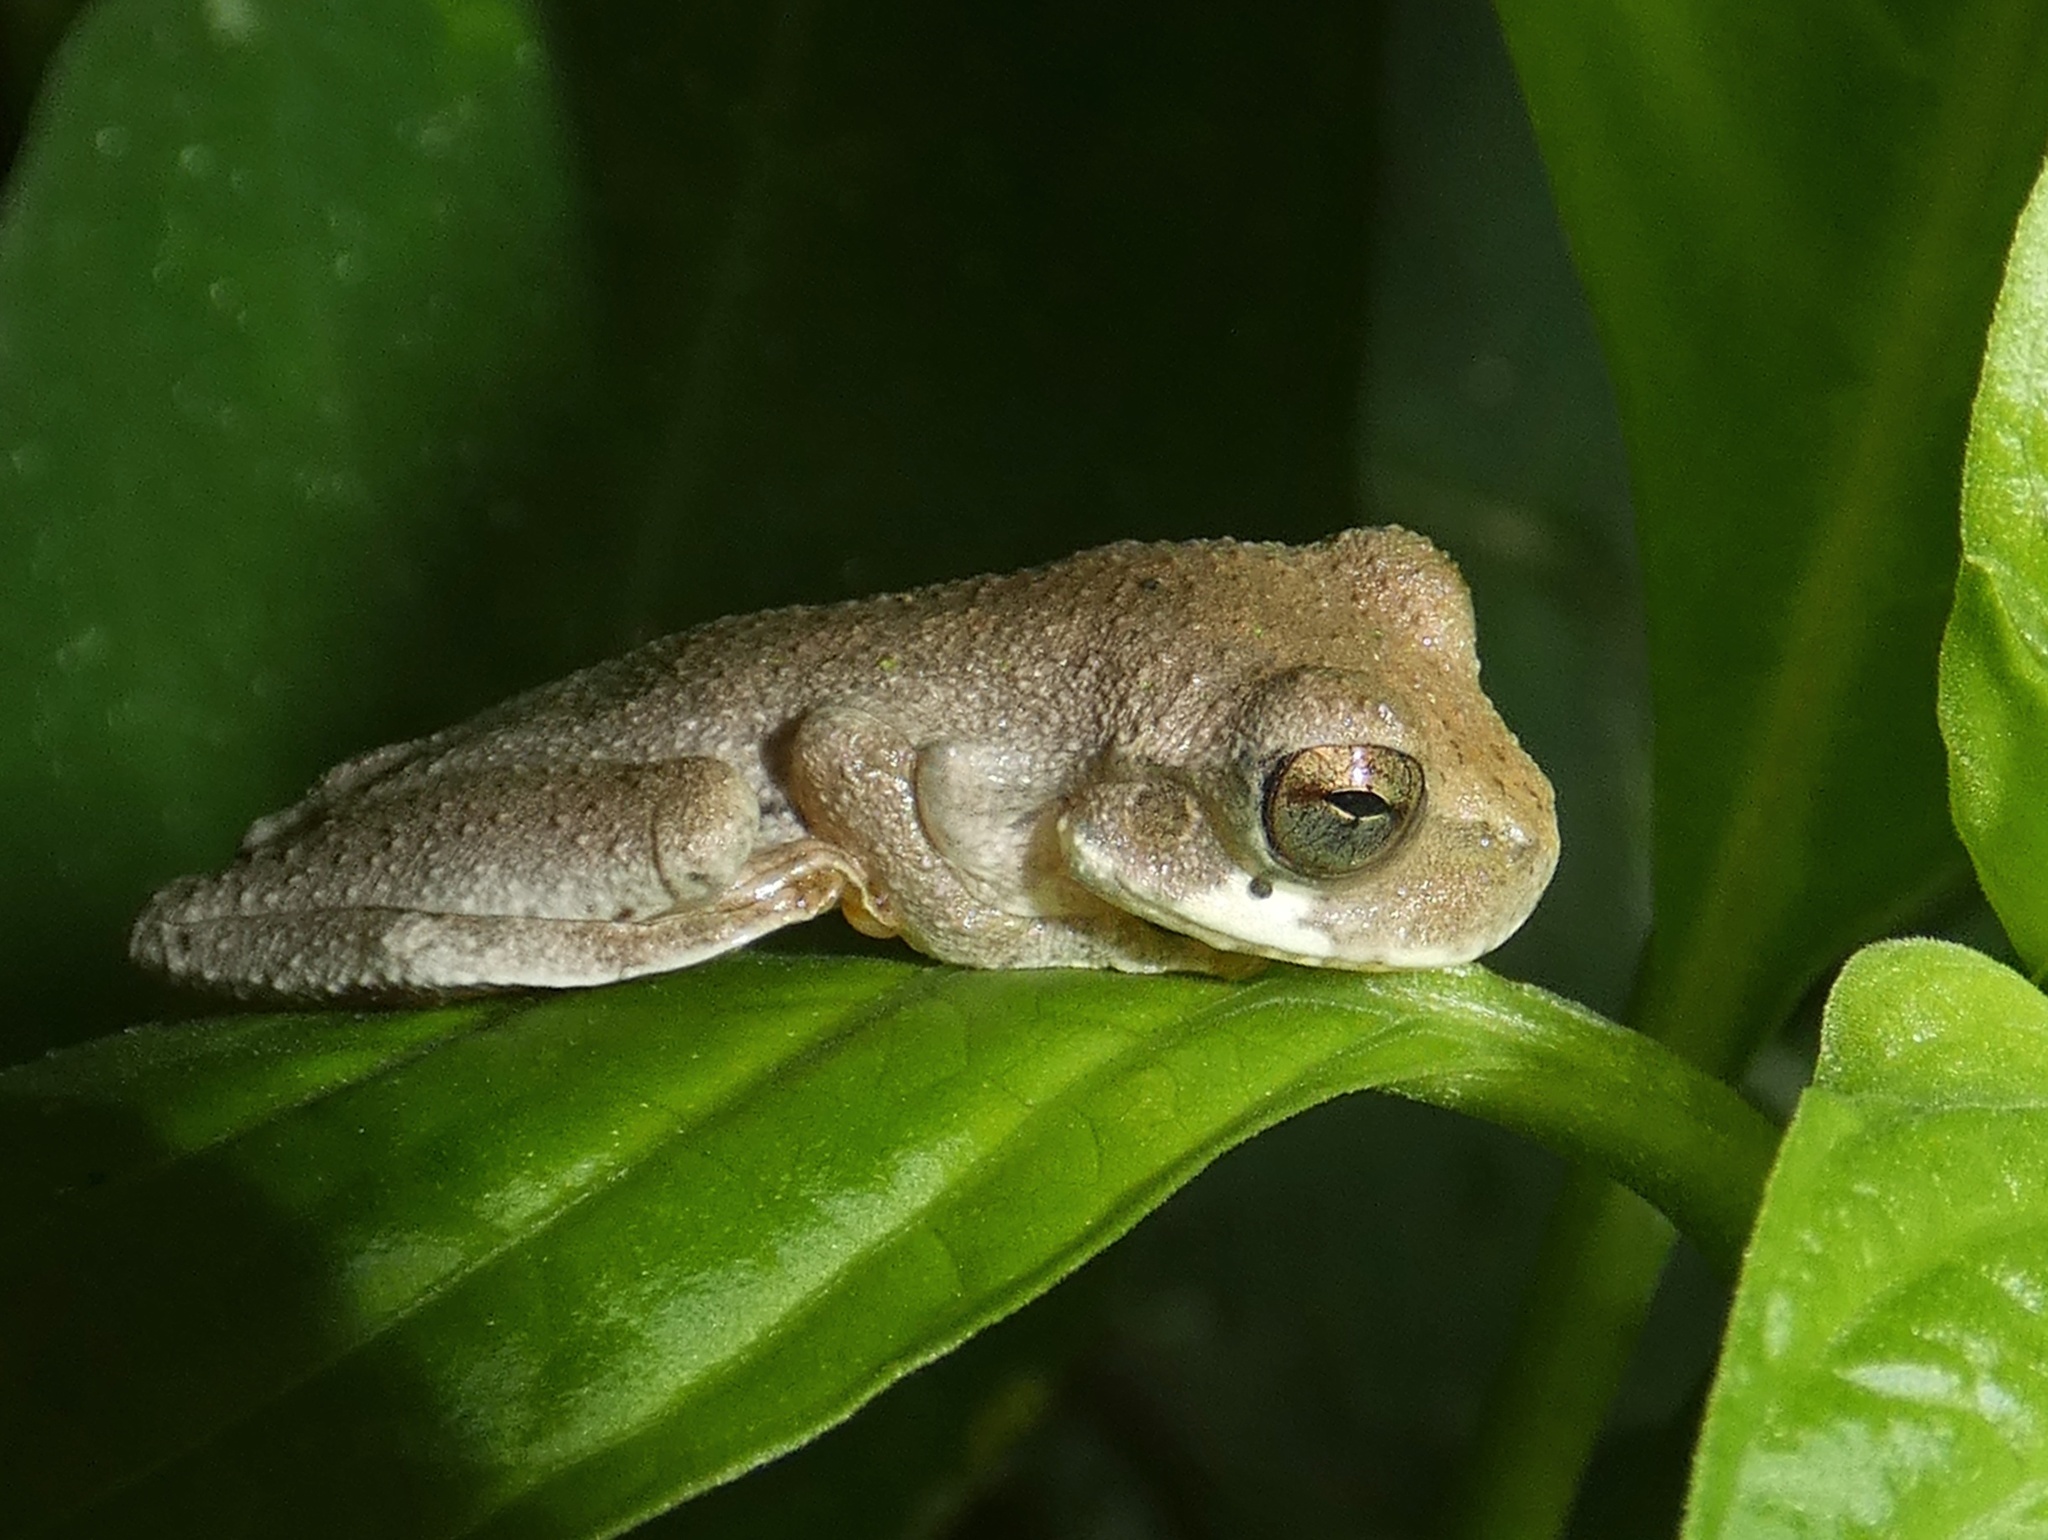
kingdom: Animalia
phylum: Chordata
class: Amphibia
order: Anura
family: Hylidae
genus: Smilisca
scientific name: Smilisca sila
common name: Panama cross-banded treefrog
